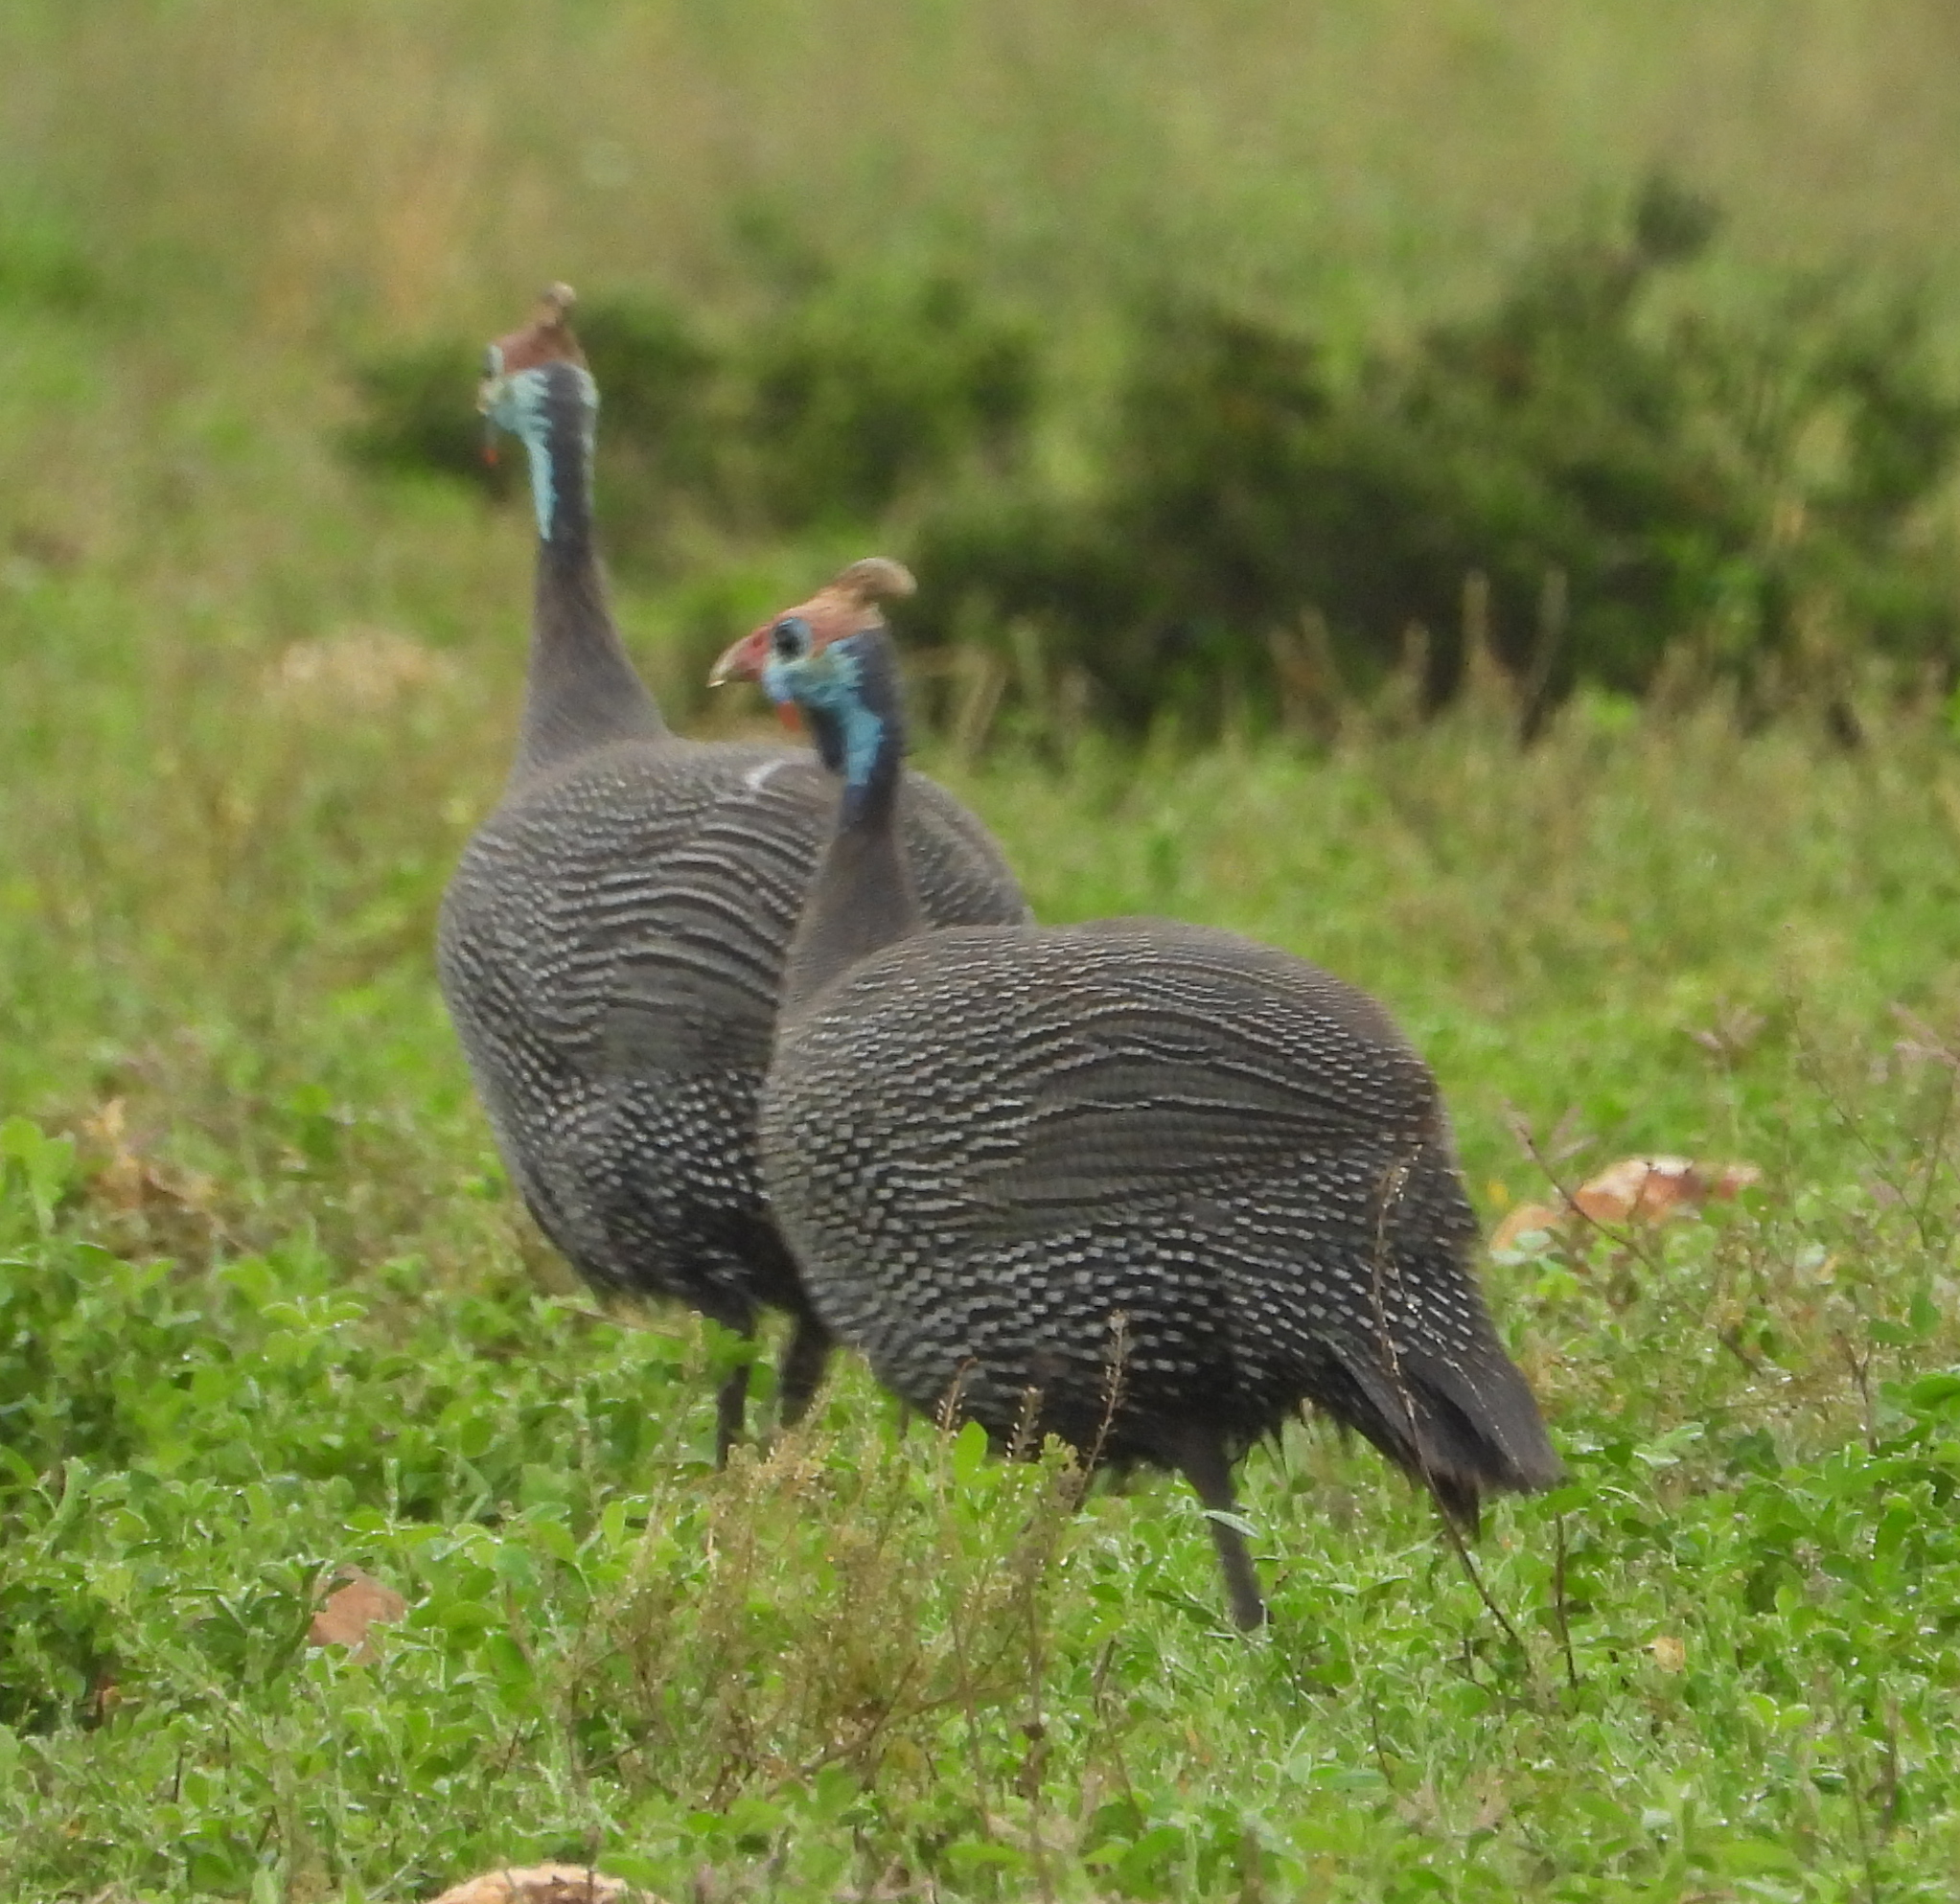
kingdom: Animalia
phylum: Chordata
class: Aves
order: Galliformes
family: Numididae
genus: Numida
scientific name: Numida meleagris
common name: Helmeted guineafowl
